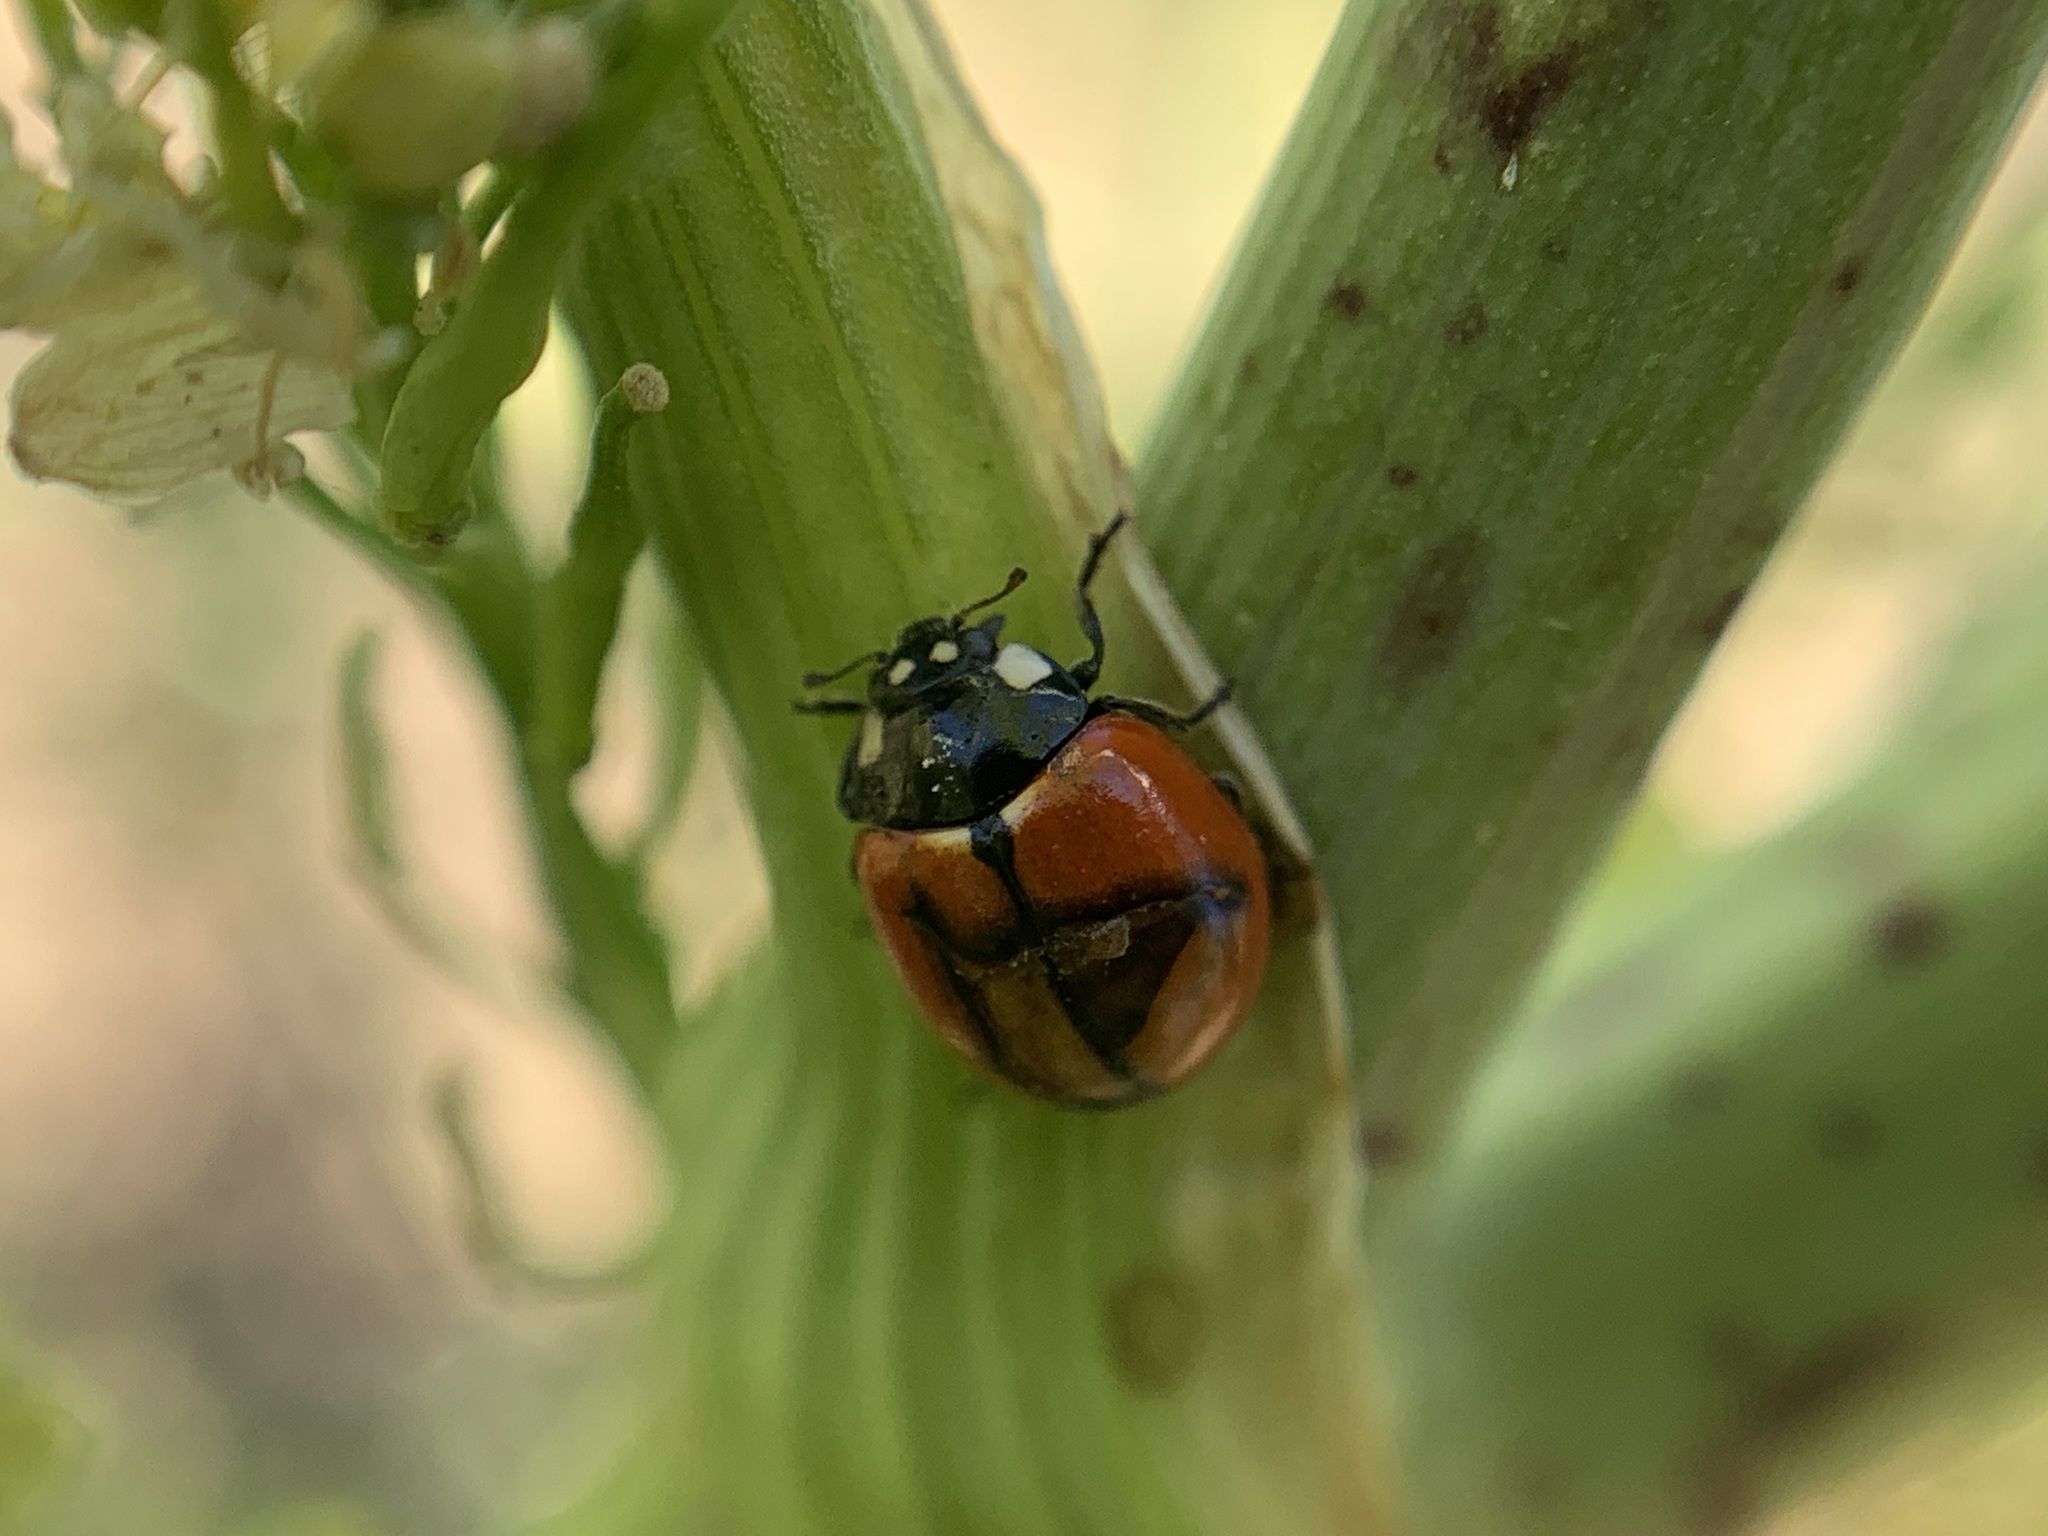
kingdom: Animalia
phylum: Arthropoda
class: Insecta
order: Coleoptera
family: Coccinellidae
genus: Coccinella
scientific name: Coccinella californica
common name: Lady beetle
